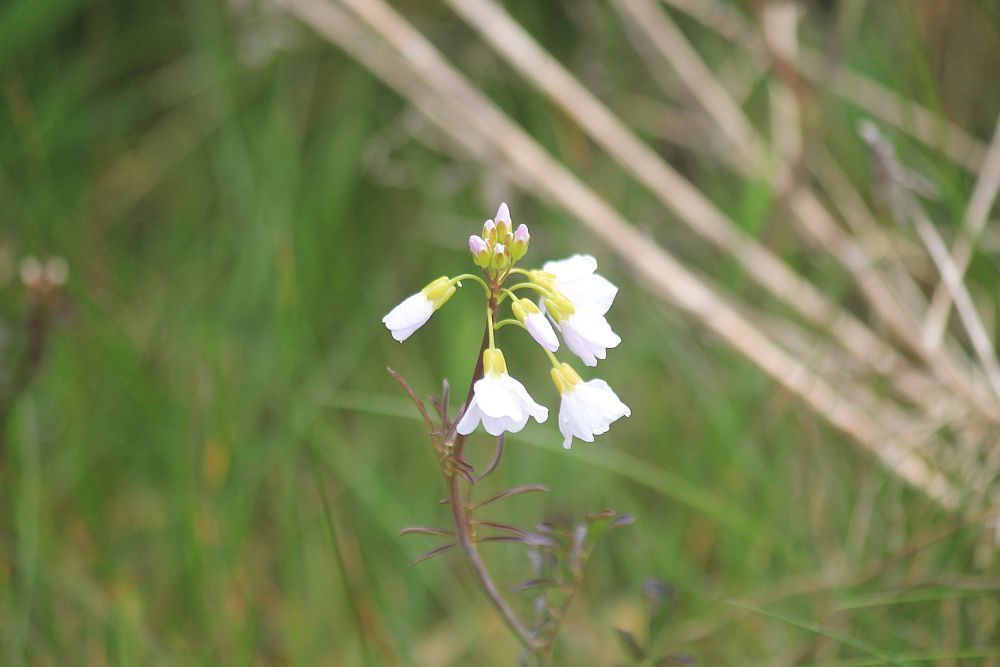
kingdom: Plantae
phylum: Tracheophyta
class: Magnoliopsida
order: Brassicales
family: Brassicaceae
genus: Cardamine
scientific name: Cardamine pratensis
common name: Cuckoo flower
